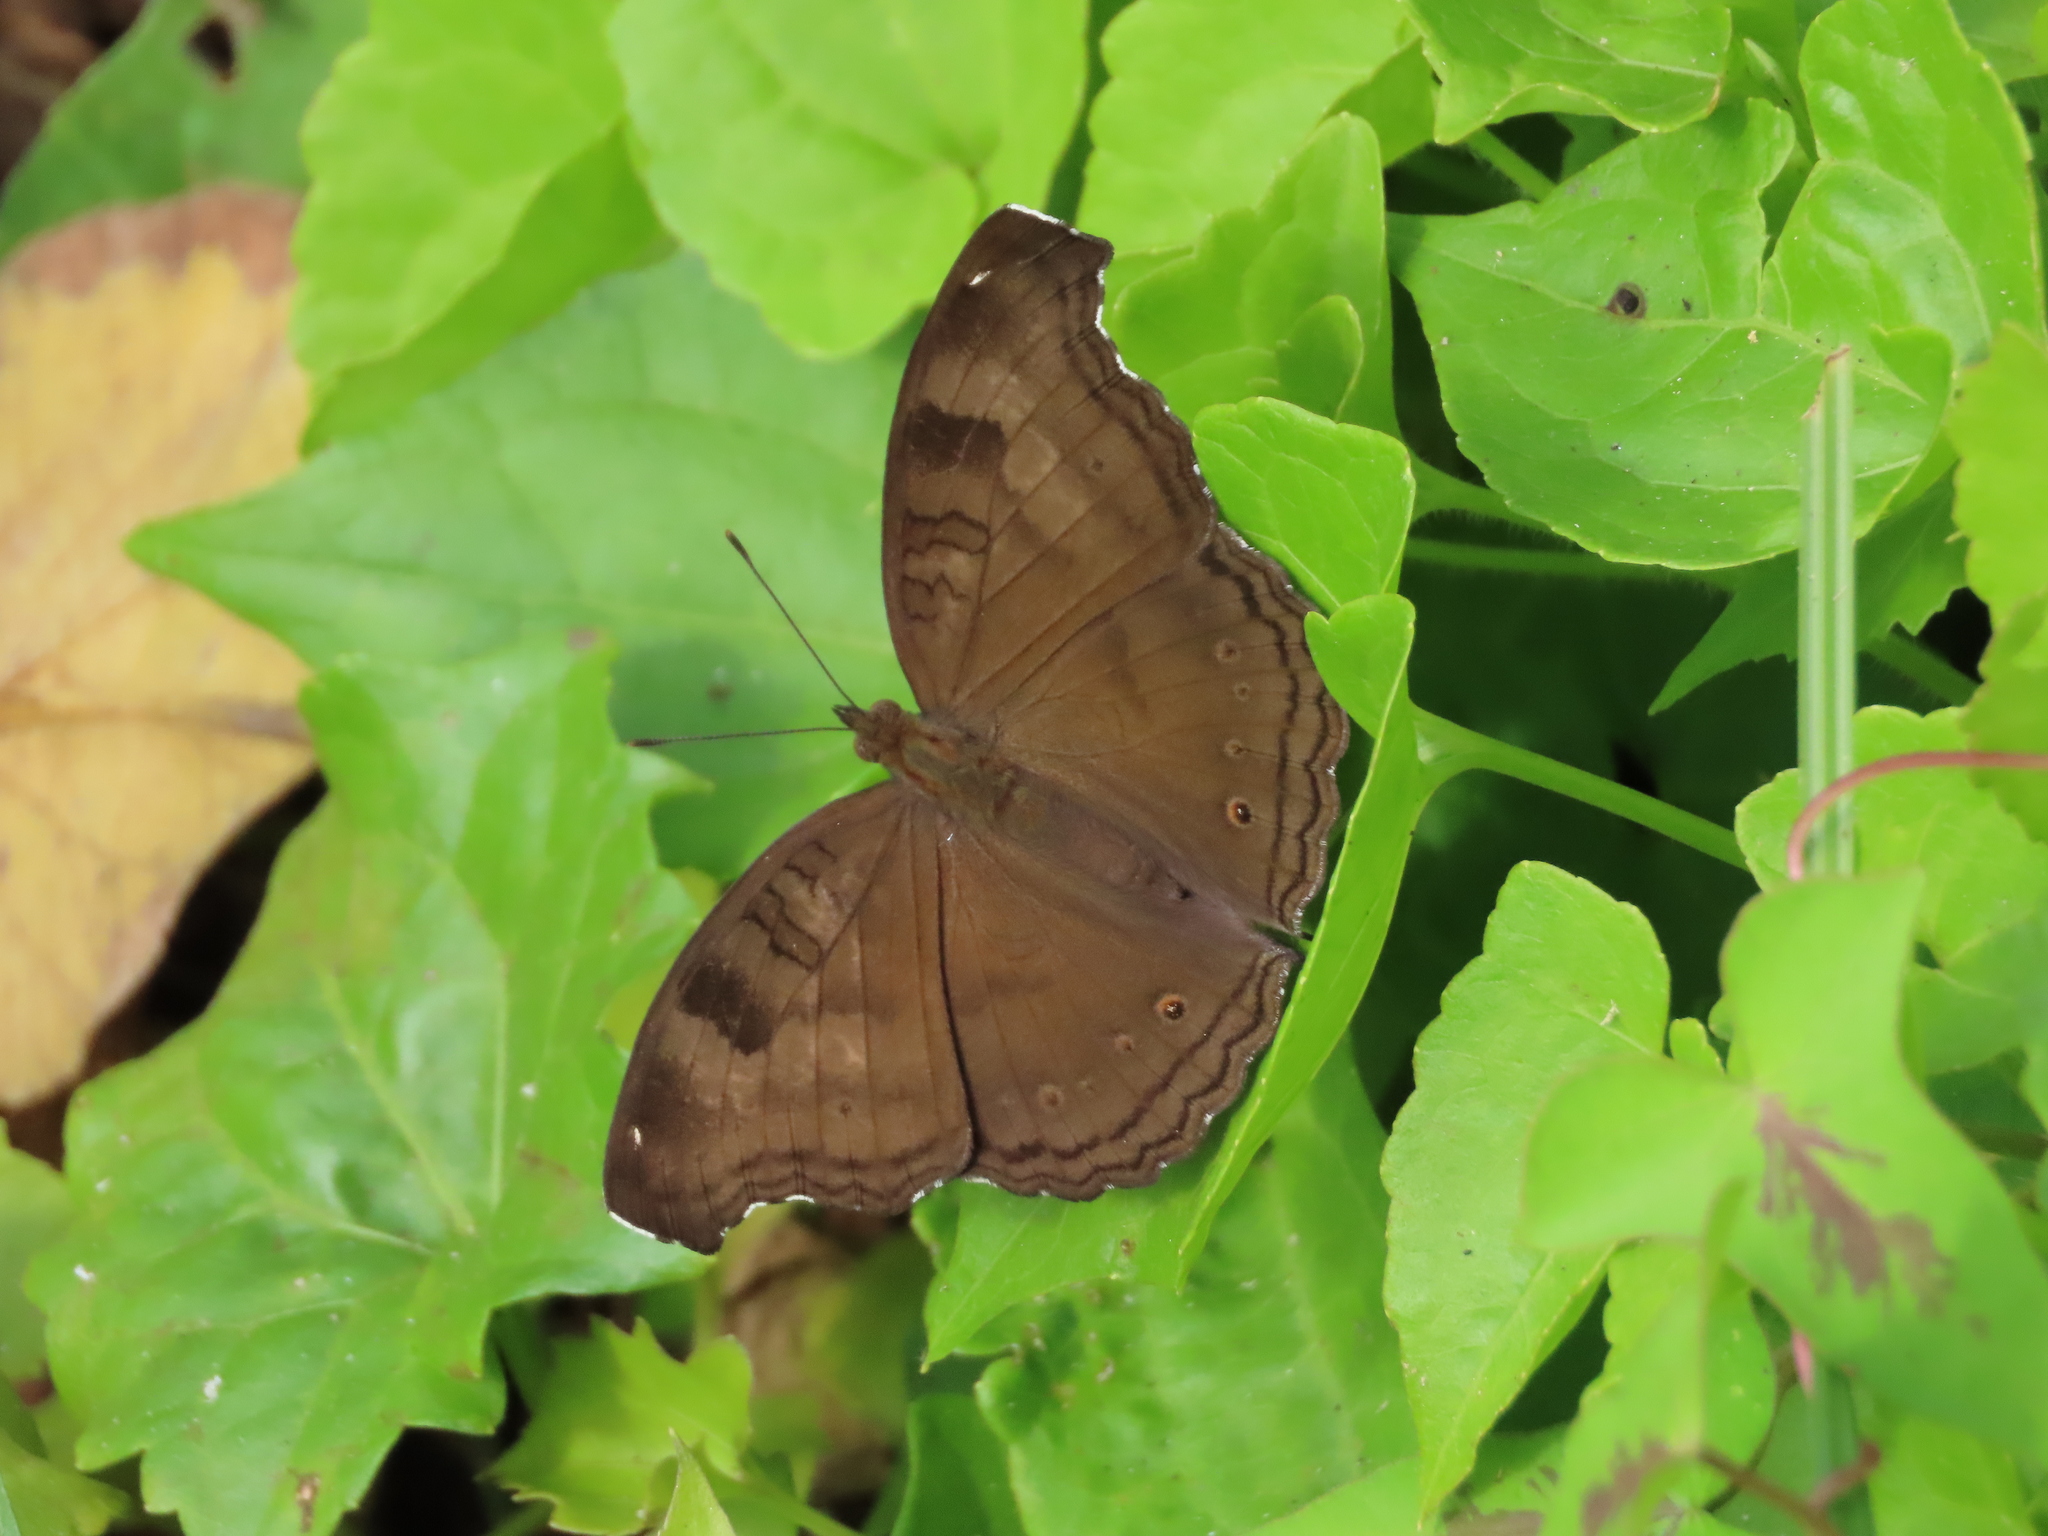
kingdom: Animalia
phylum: Arthropoda
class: Insecta
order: Lepidoptera
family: Nymphalidae
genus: Junonia
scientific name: Junonia iphita
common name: Chocolate pansy
